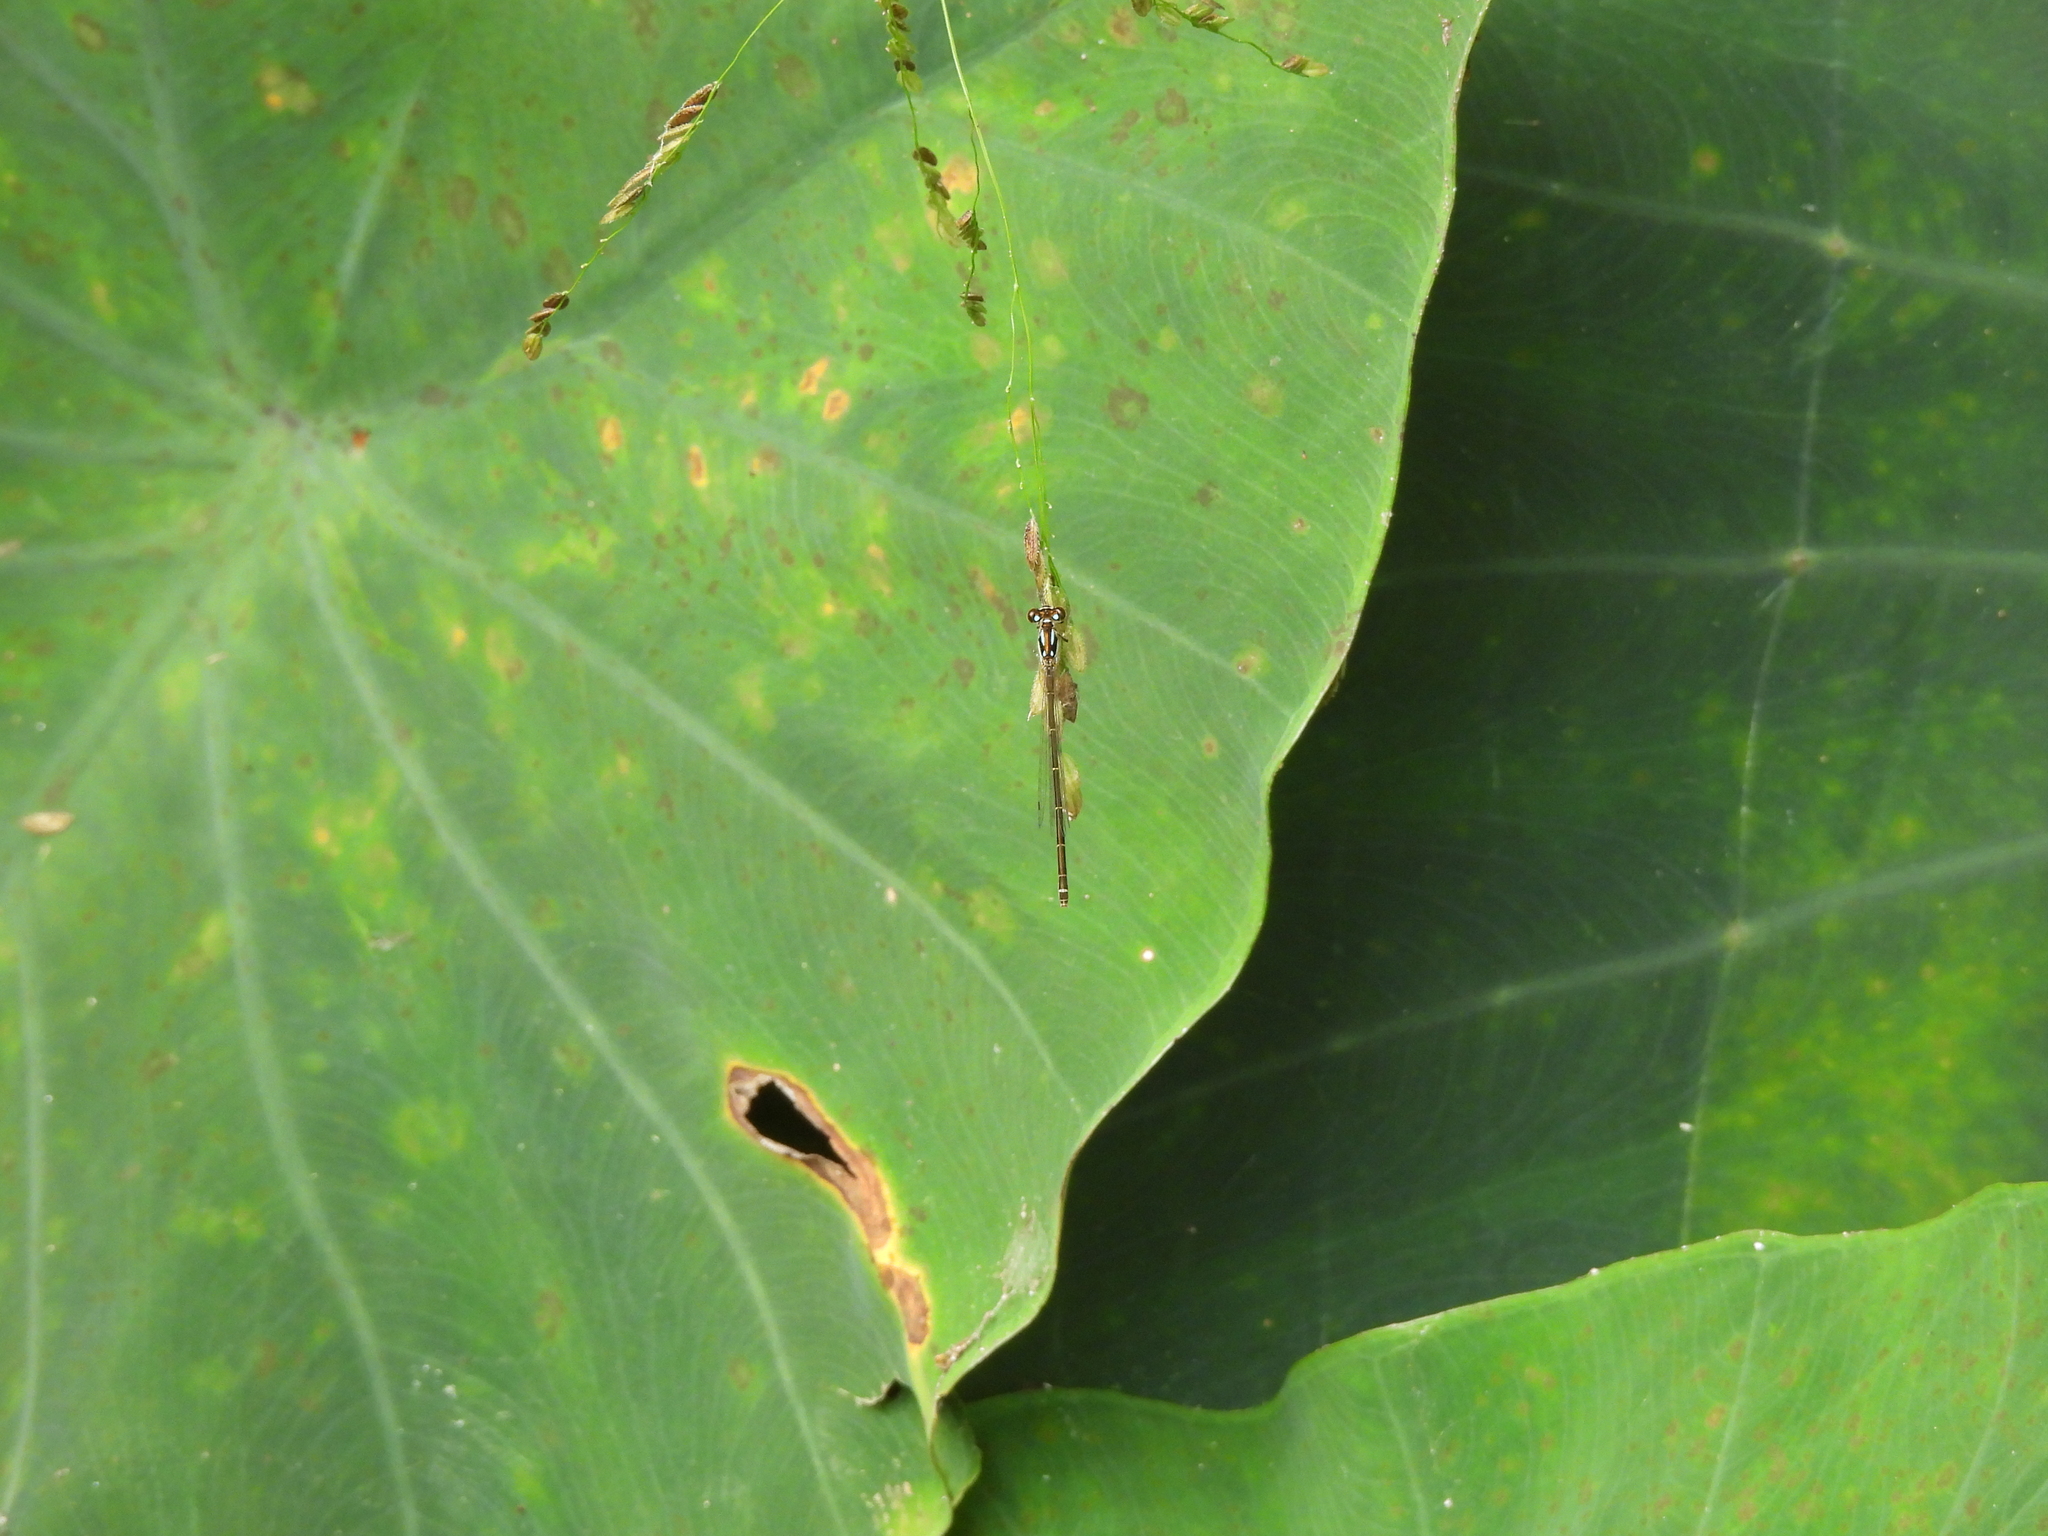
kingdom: Animalia
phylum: Arthropoda
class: Insecta
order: Odonata
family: Coenagrionidae
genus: Ischnura
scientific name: Ischnura posita
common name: Fragile forktail
